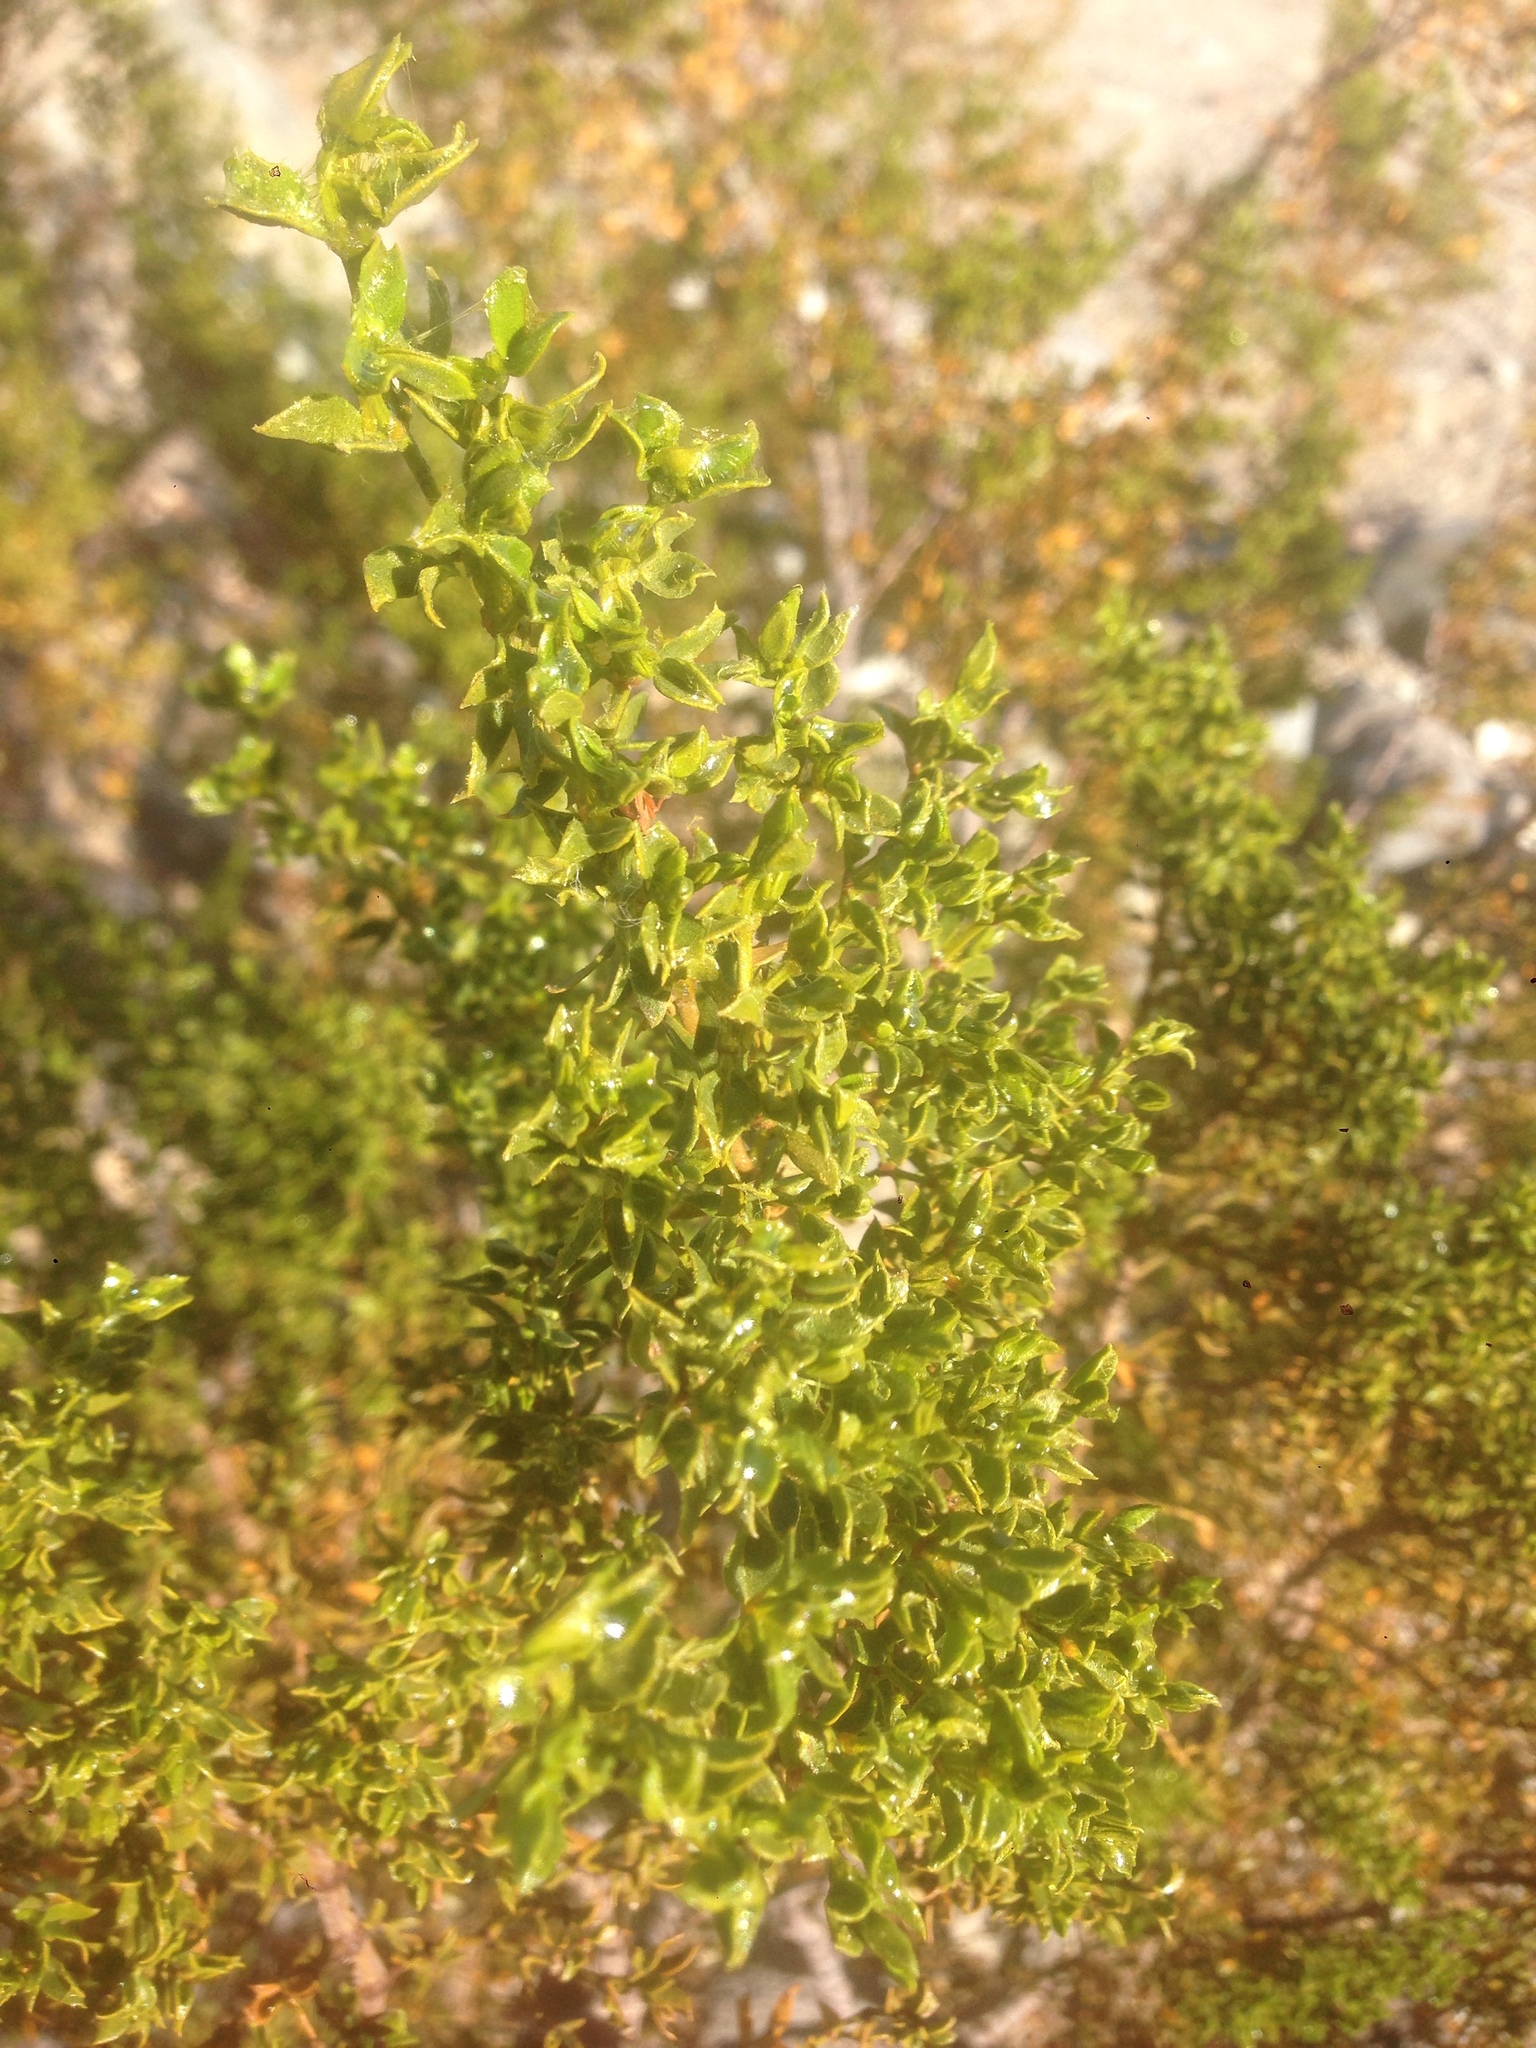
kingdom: Plantae
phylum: Tracheophyta
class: Magnoliopsida
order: Zygophyllales
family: Zygophyllaceae
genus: Larrea
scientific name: Larrea tridentata
